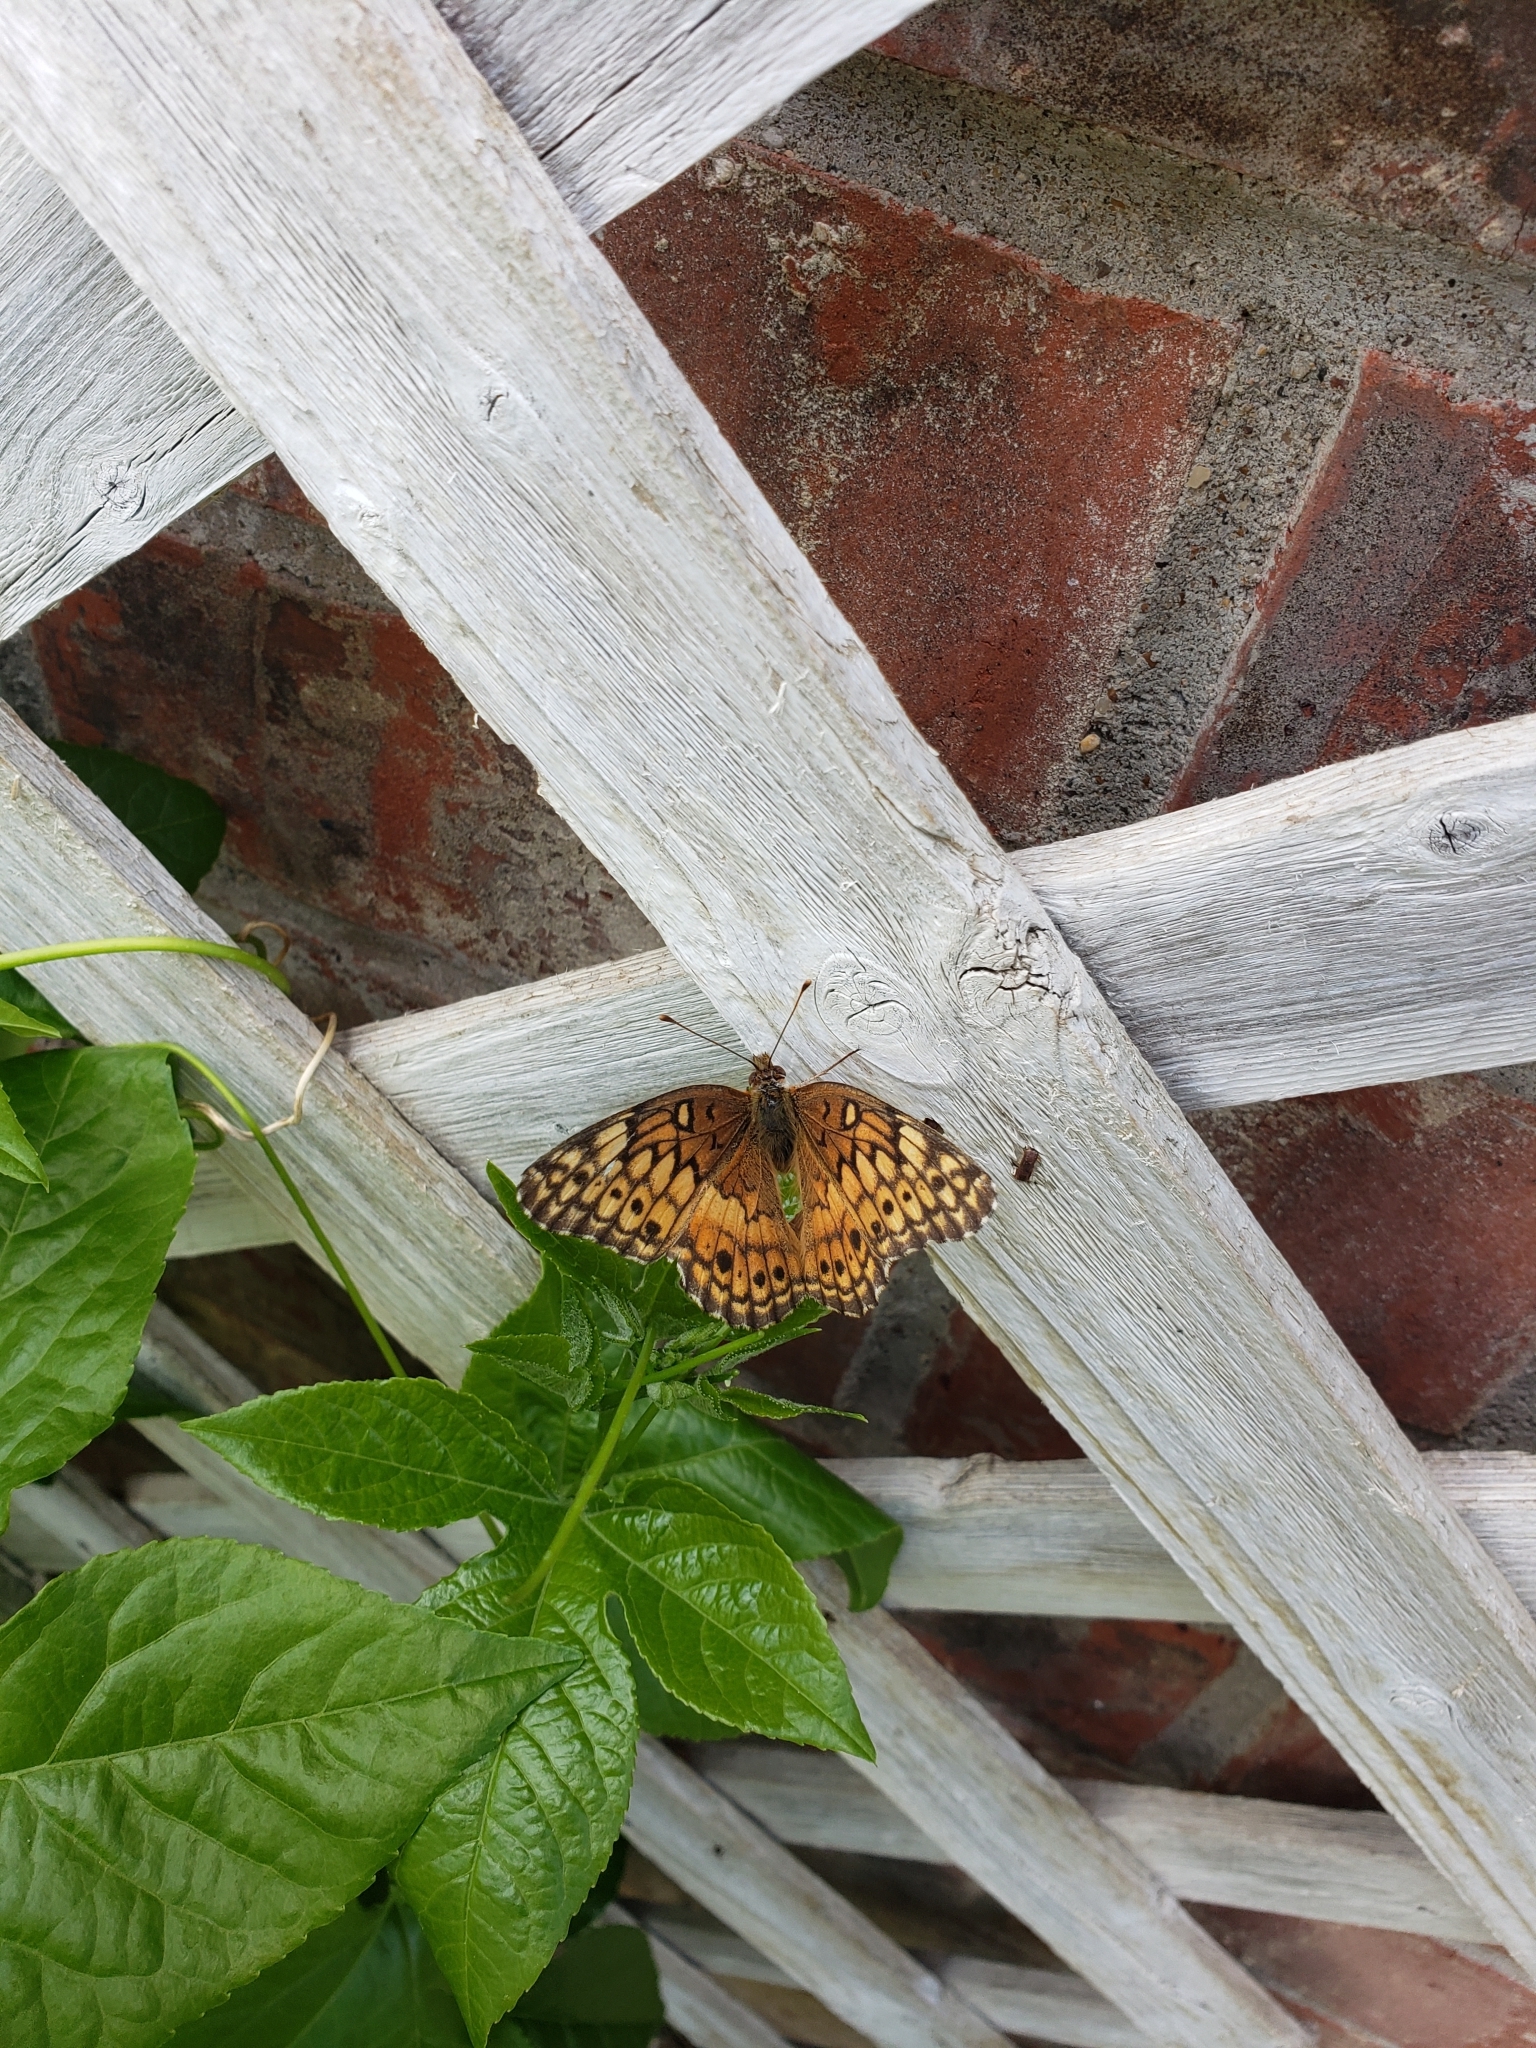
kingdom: Animalia
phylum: Arthropoda
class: Insecta
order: Lepidoptera
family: Nymphalidae
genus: Euptoieta
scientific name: Euptoieta claudia
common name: Variegated fritillary
